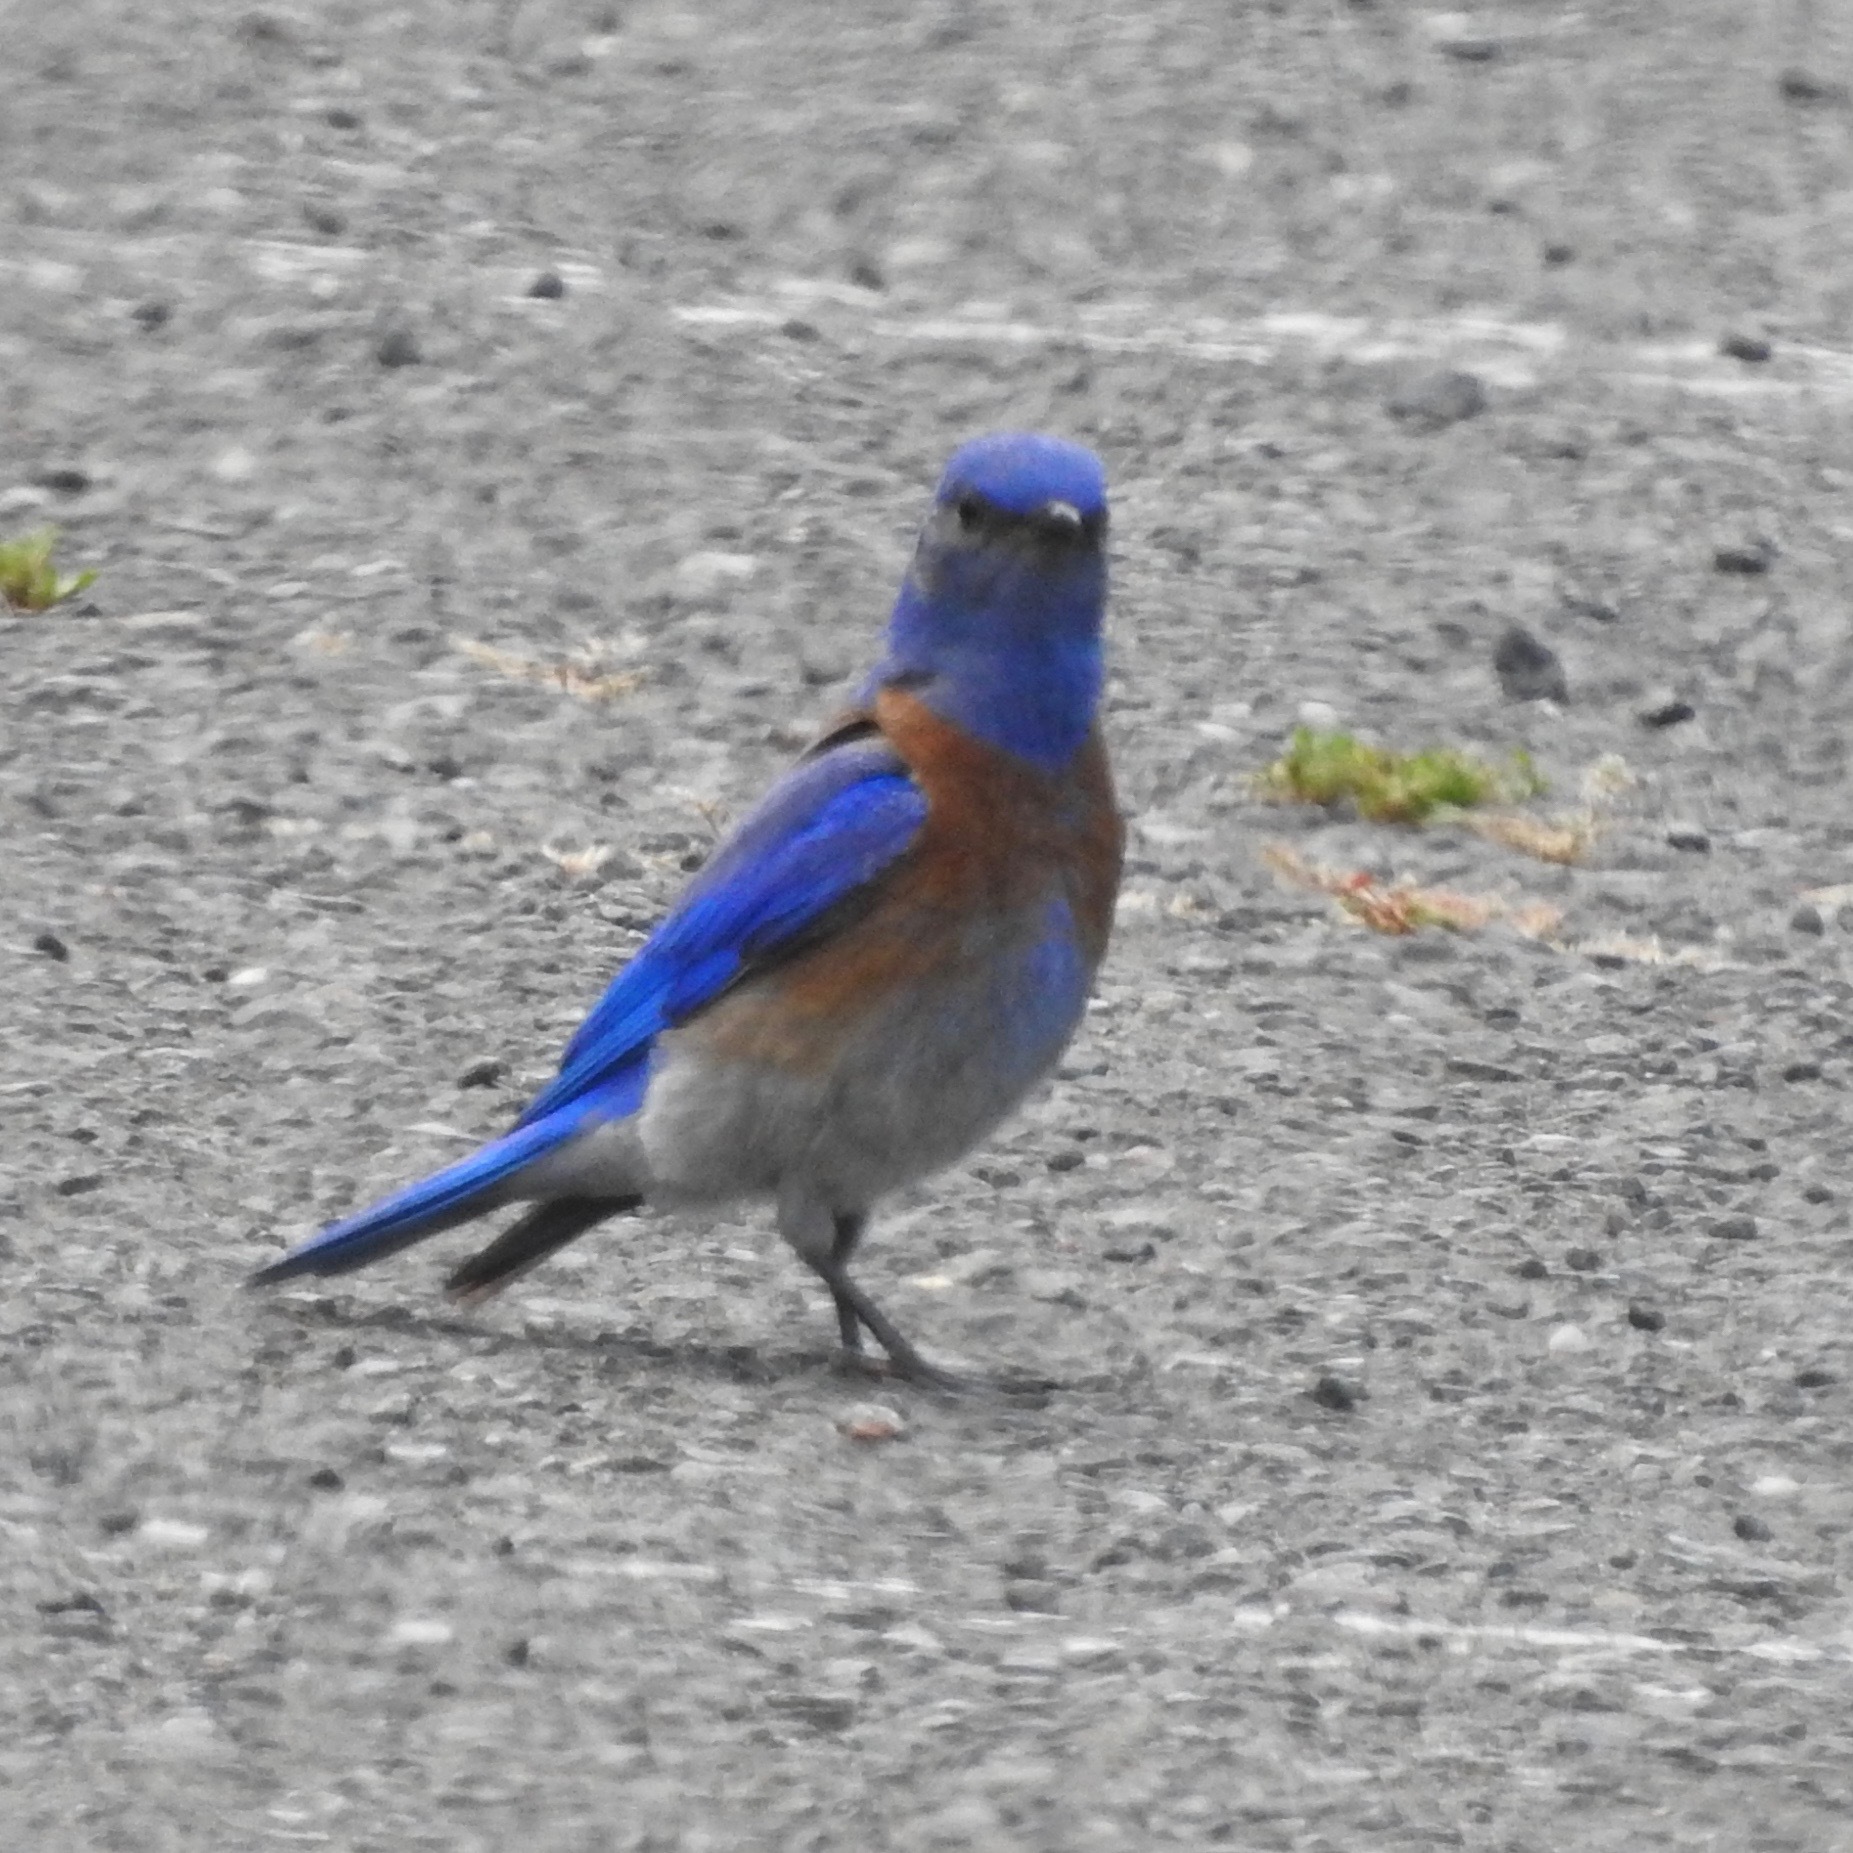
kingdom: Animalia
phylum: Chordata
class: Aves
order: Passeriformes
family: Turdidae
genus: Sialia
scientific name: Sialia mexicana
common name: Western bluebird
